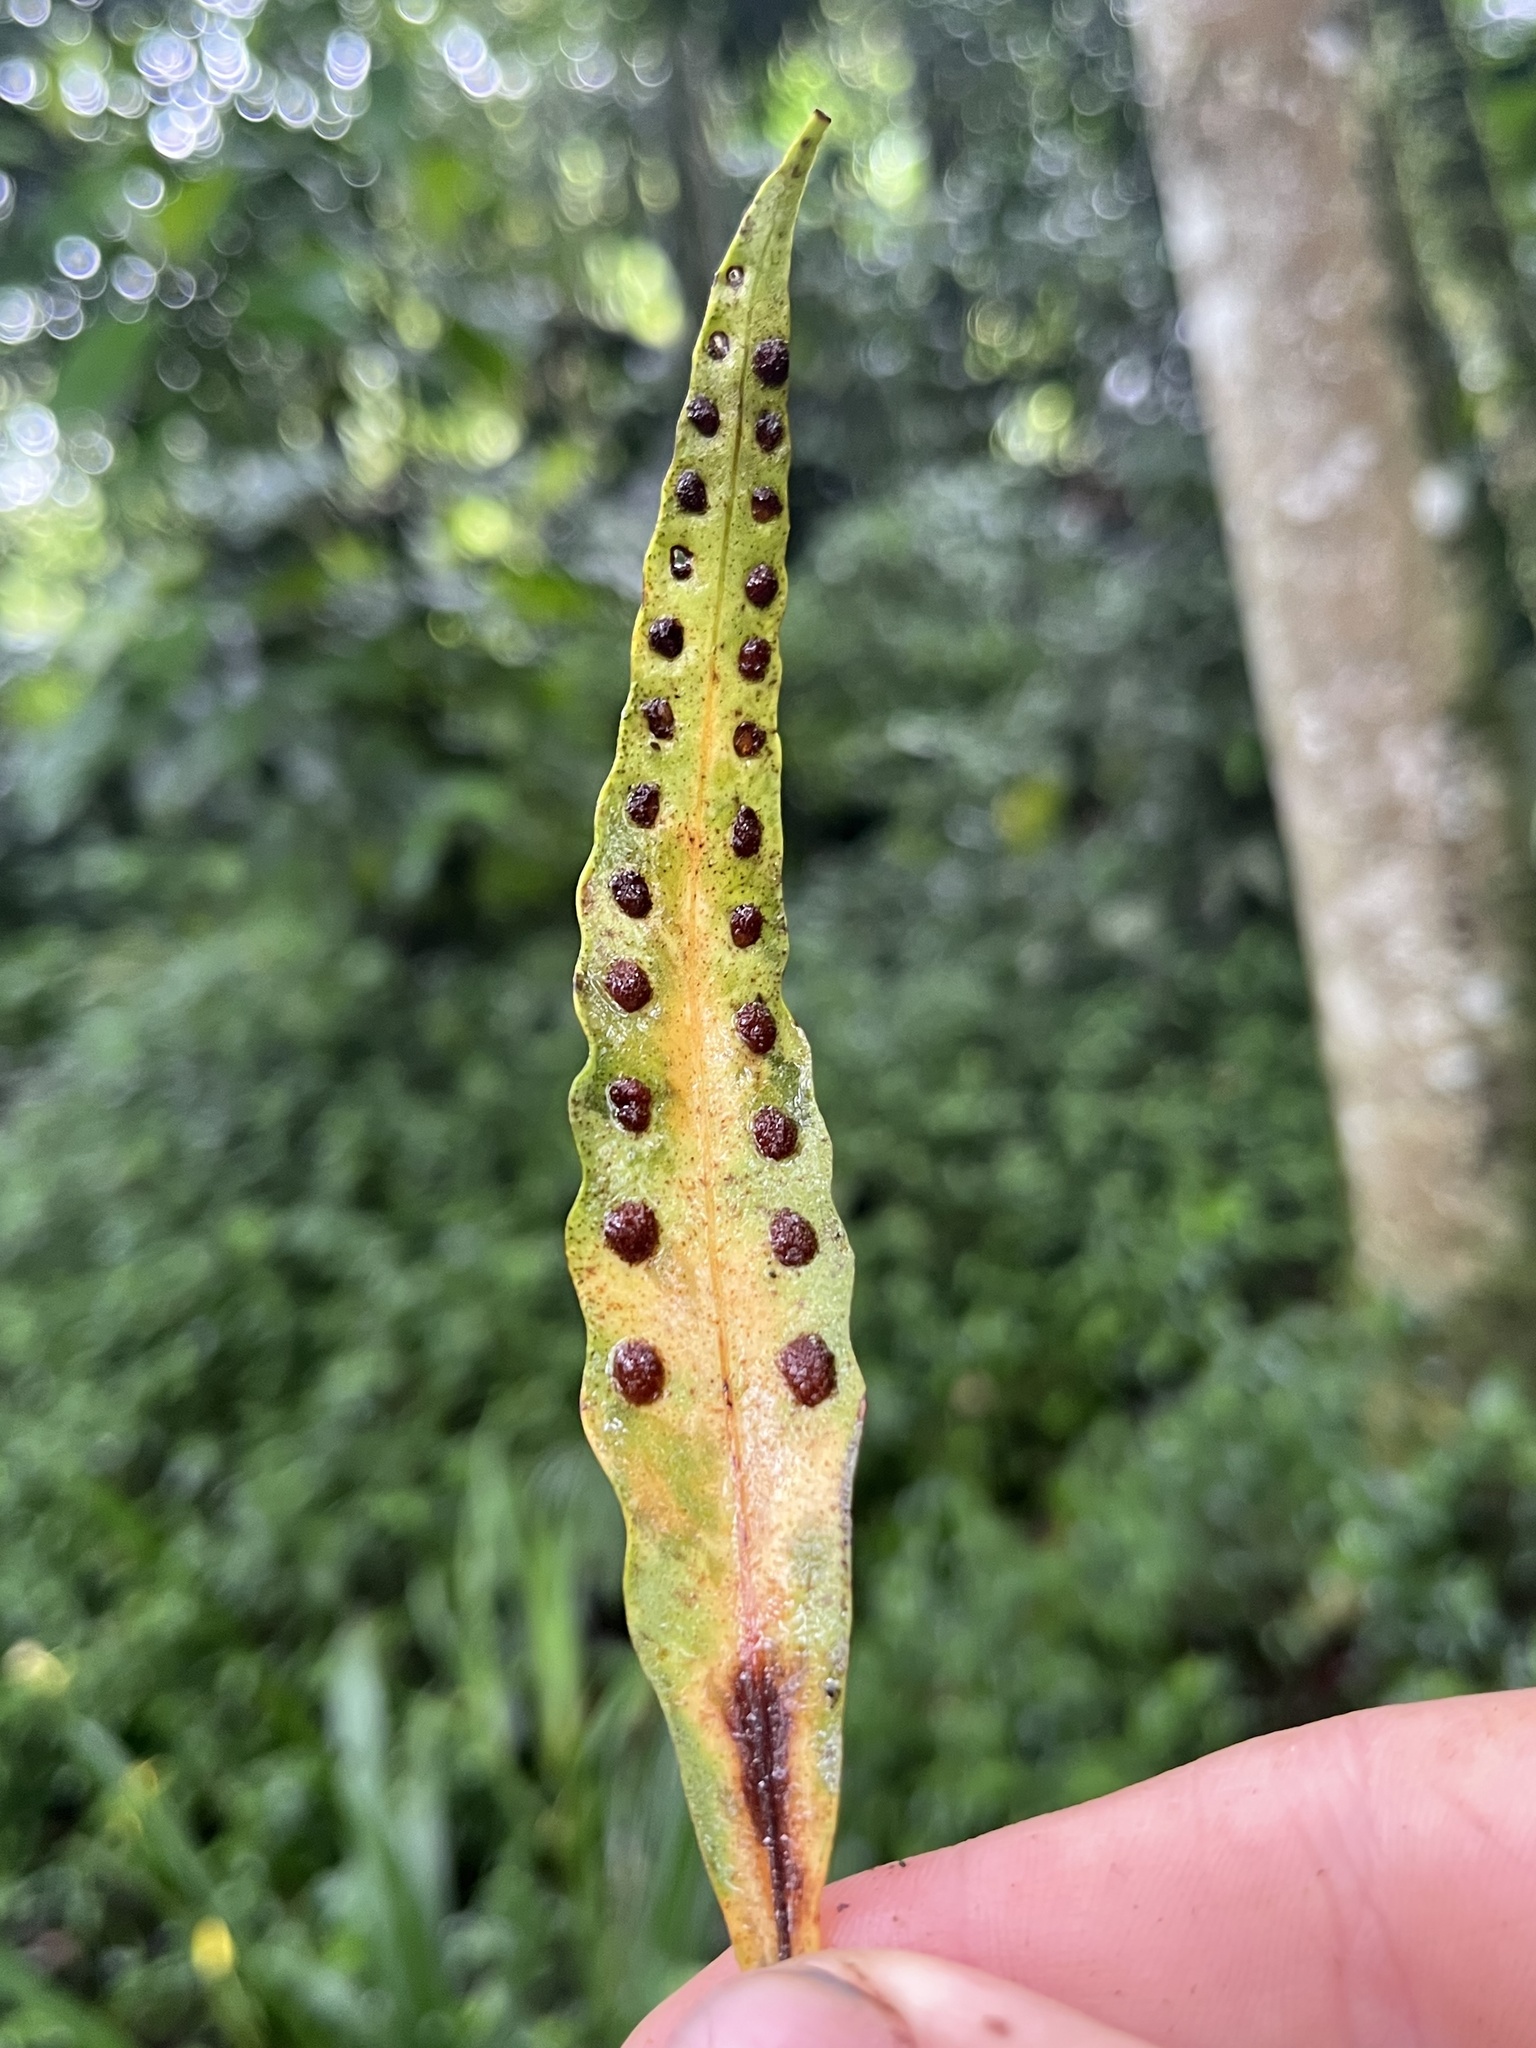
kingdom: Plantae
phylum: Tracheophyta
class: Polypodiopsida
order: Polypodiales
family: Polypodiaceae
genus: Pleopeltis
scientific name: Pleopeltis macrocarpa
